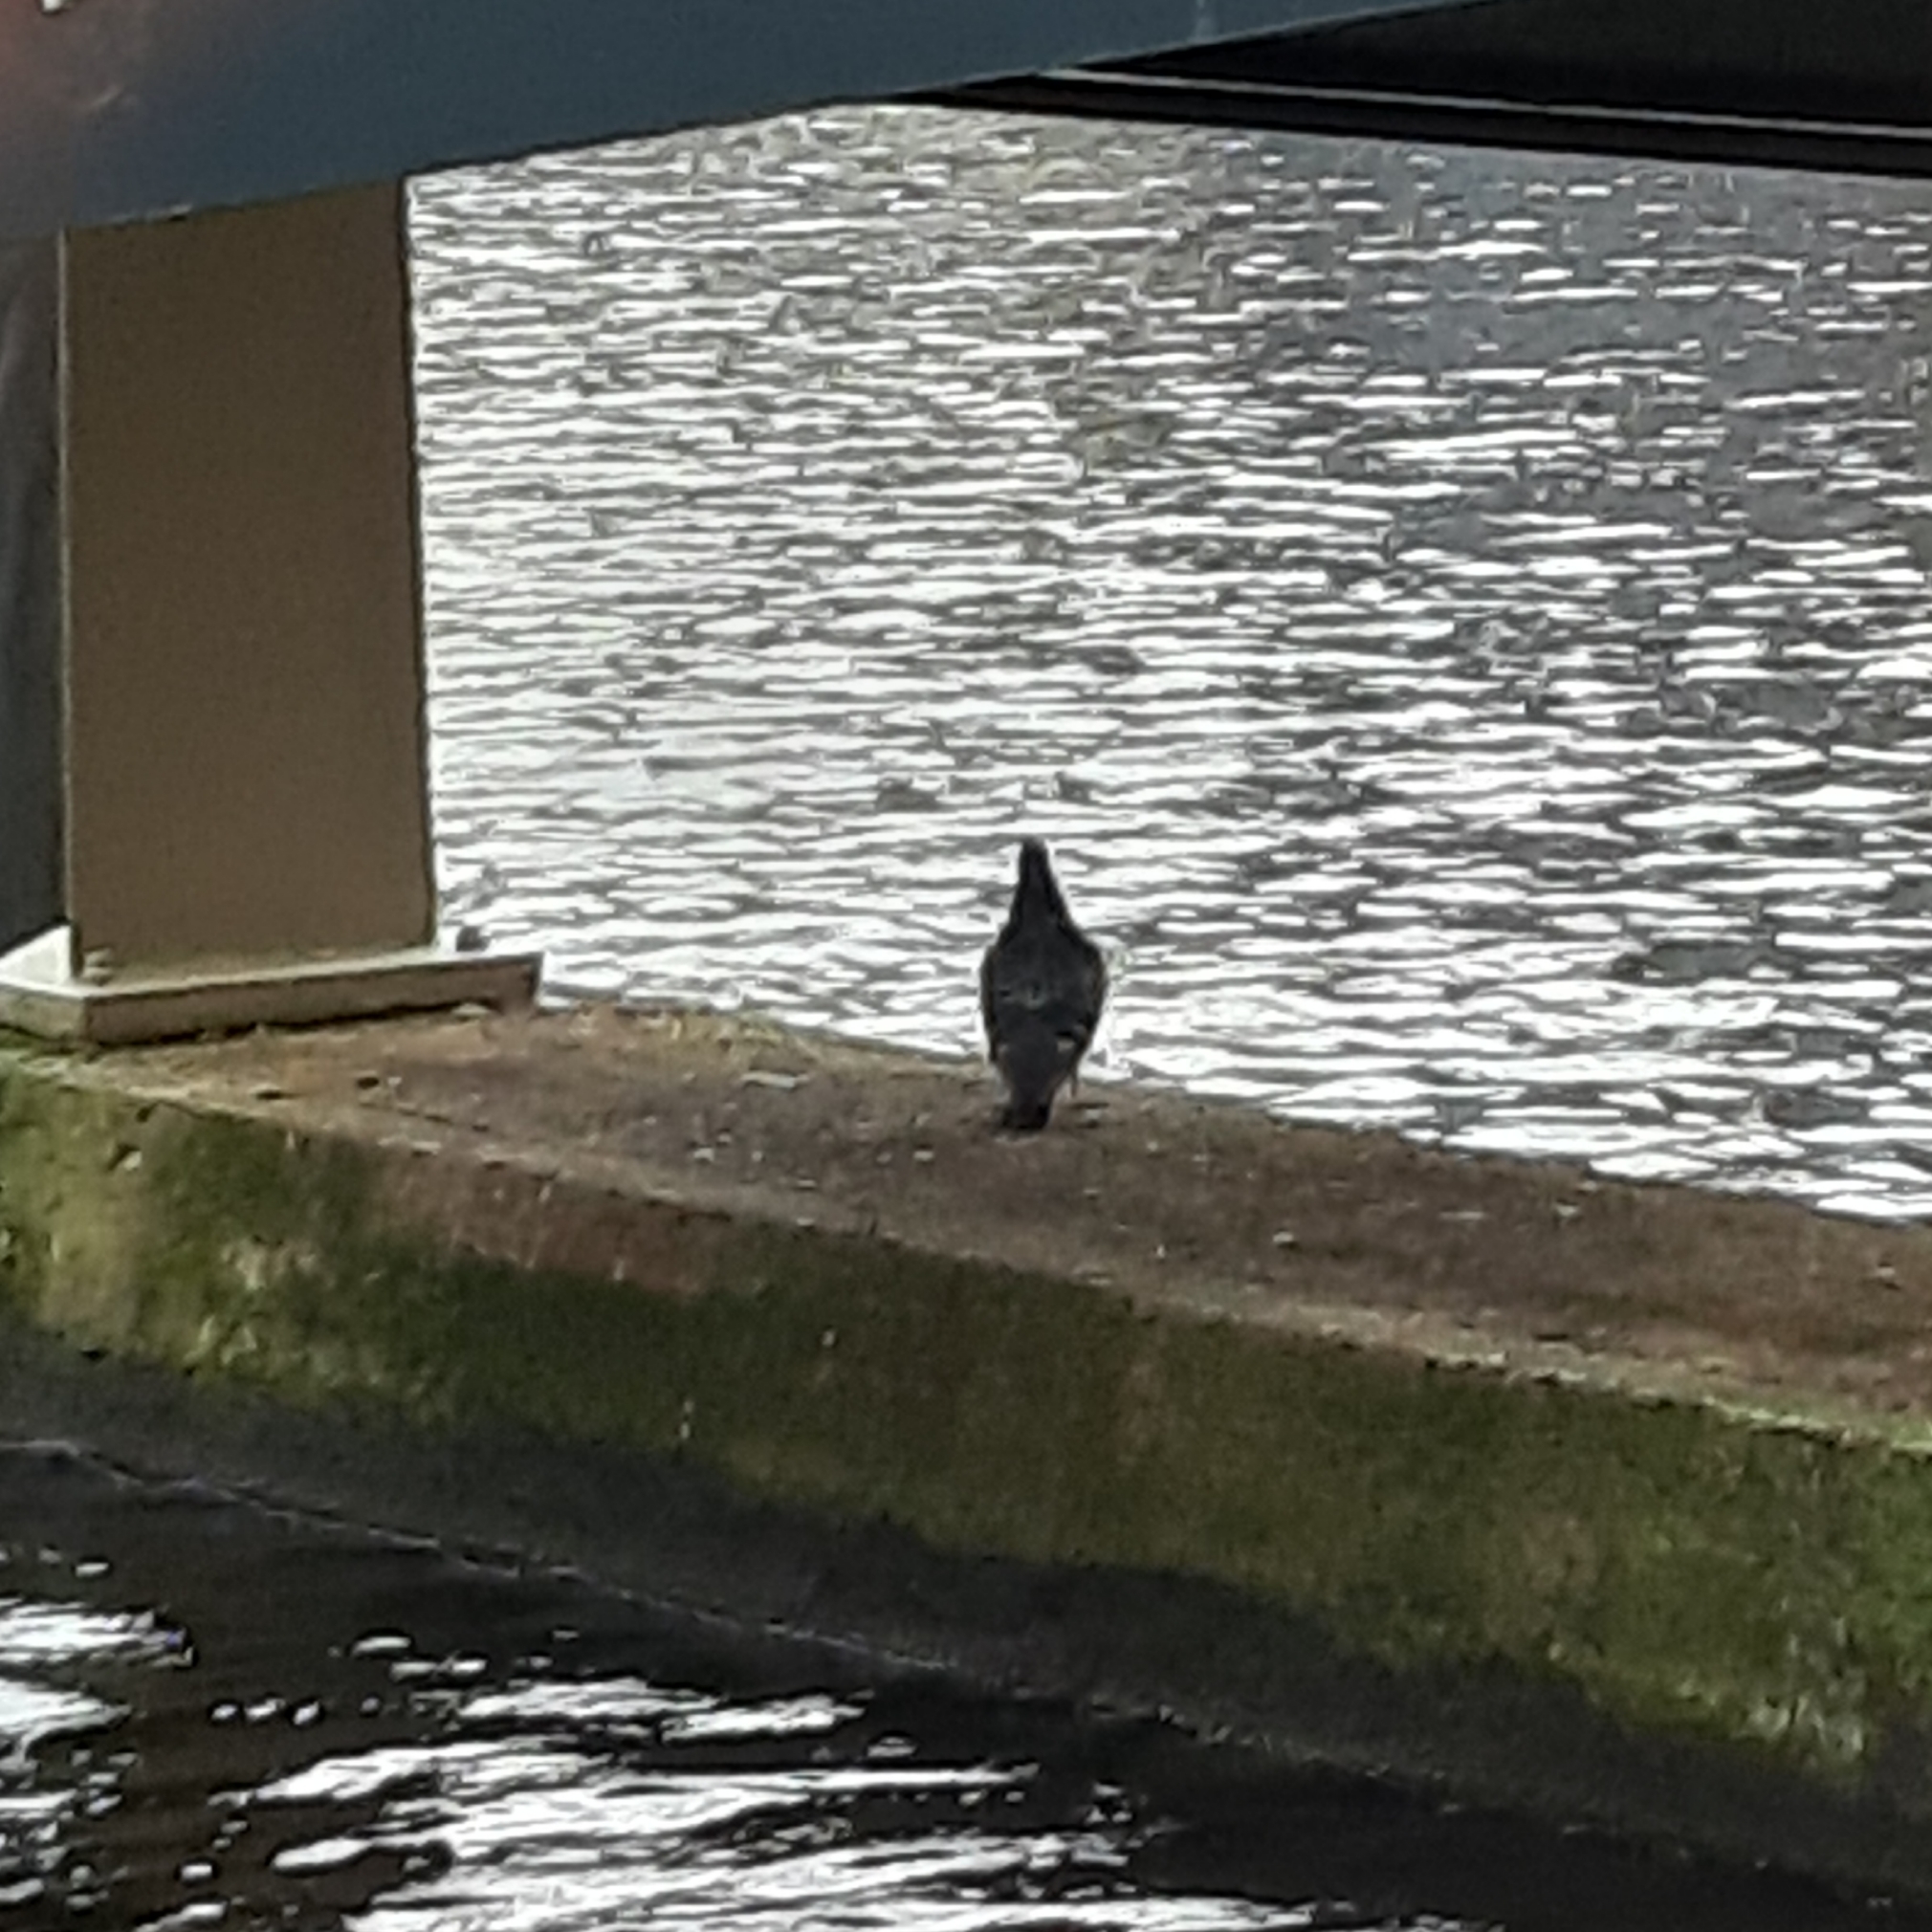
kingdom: Animalia
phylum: Chordata
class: Aves
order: Columbiformes
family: Columbidae
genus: Columba
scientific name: Columba livia
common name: Rock pigeon
